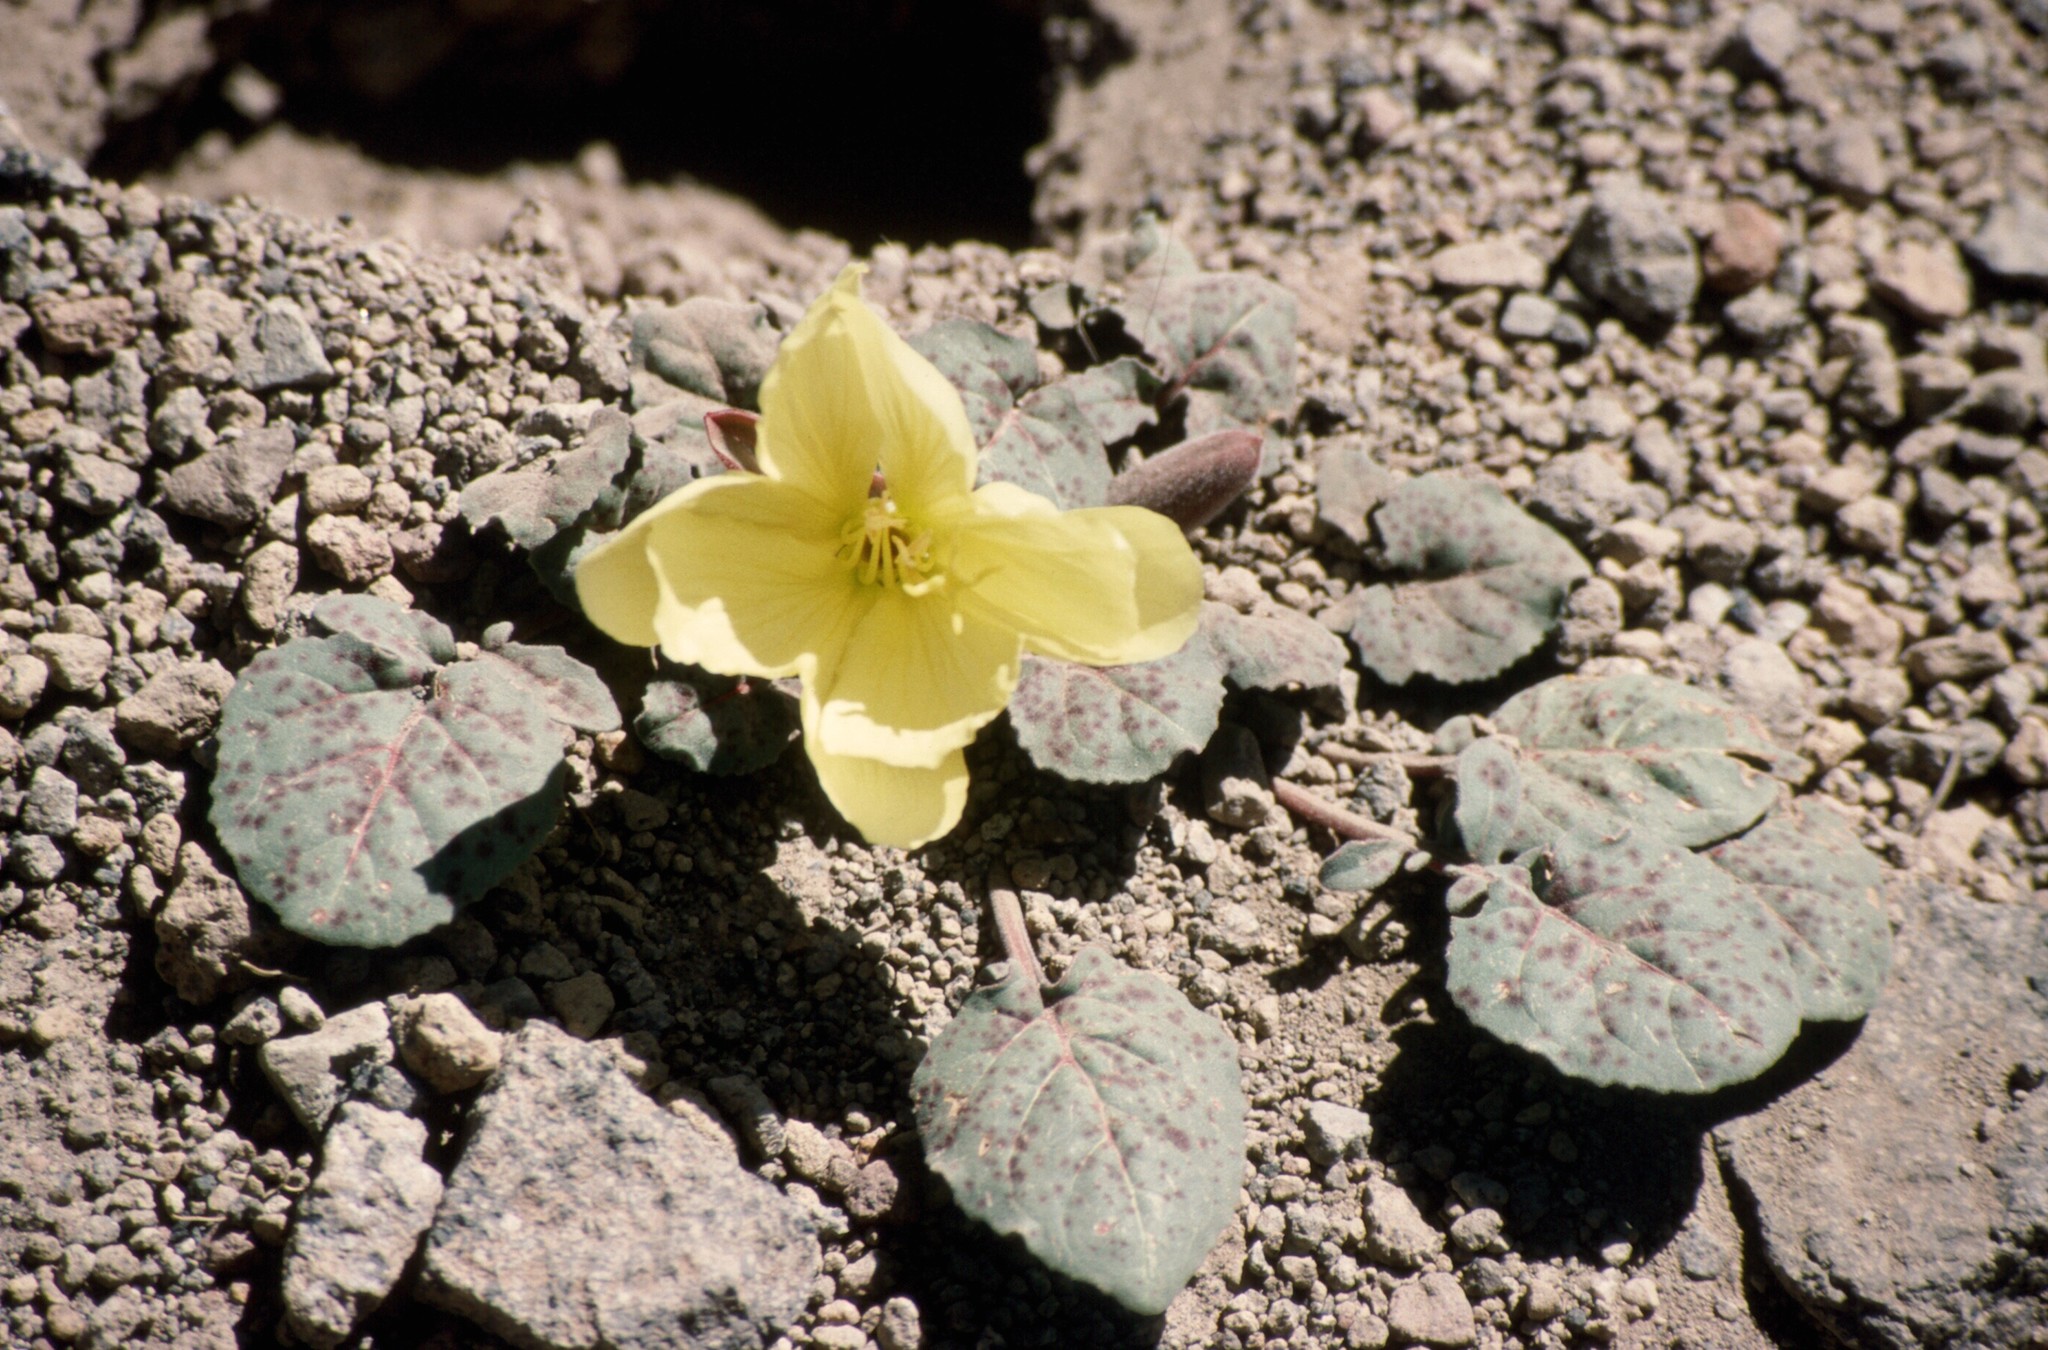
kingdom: Plantae
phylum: Tracheophyta
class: Magnoliopsida
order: Myrtales
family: Onagraceae
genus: Oenothera
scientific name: Oenothera xylocarpa
